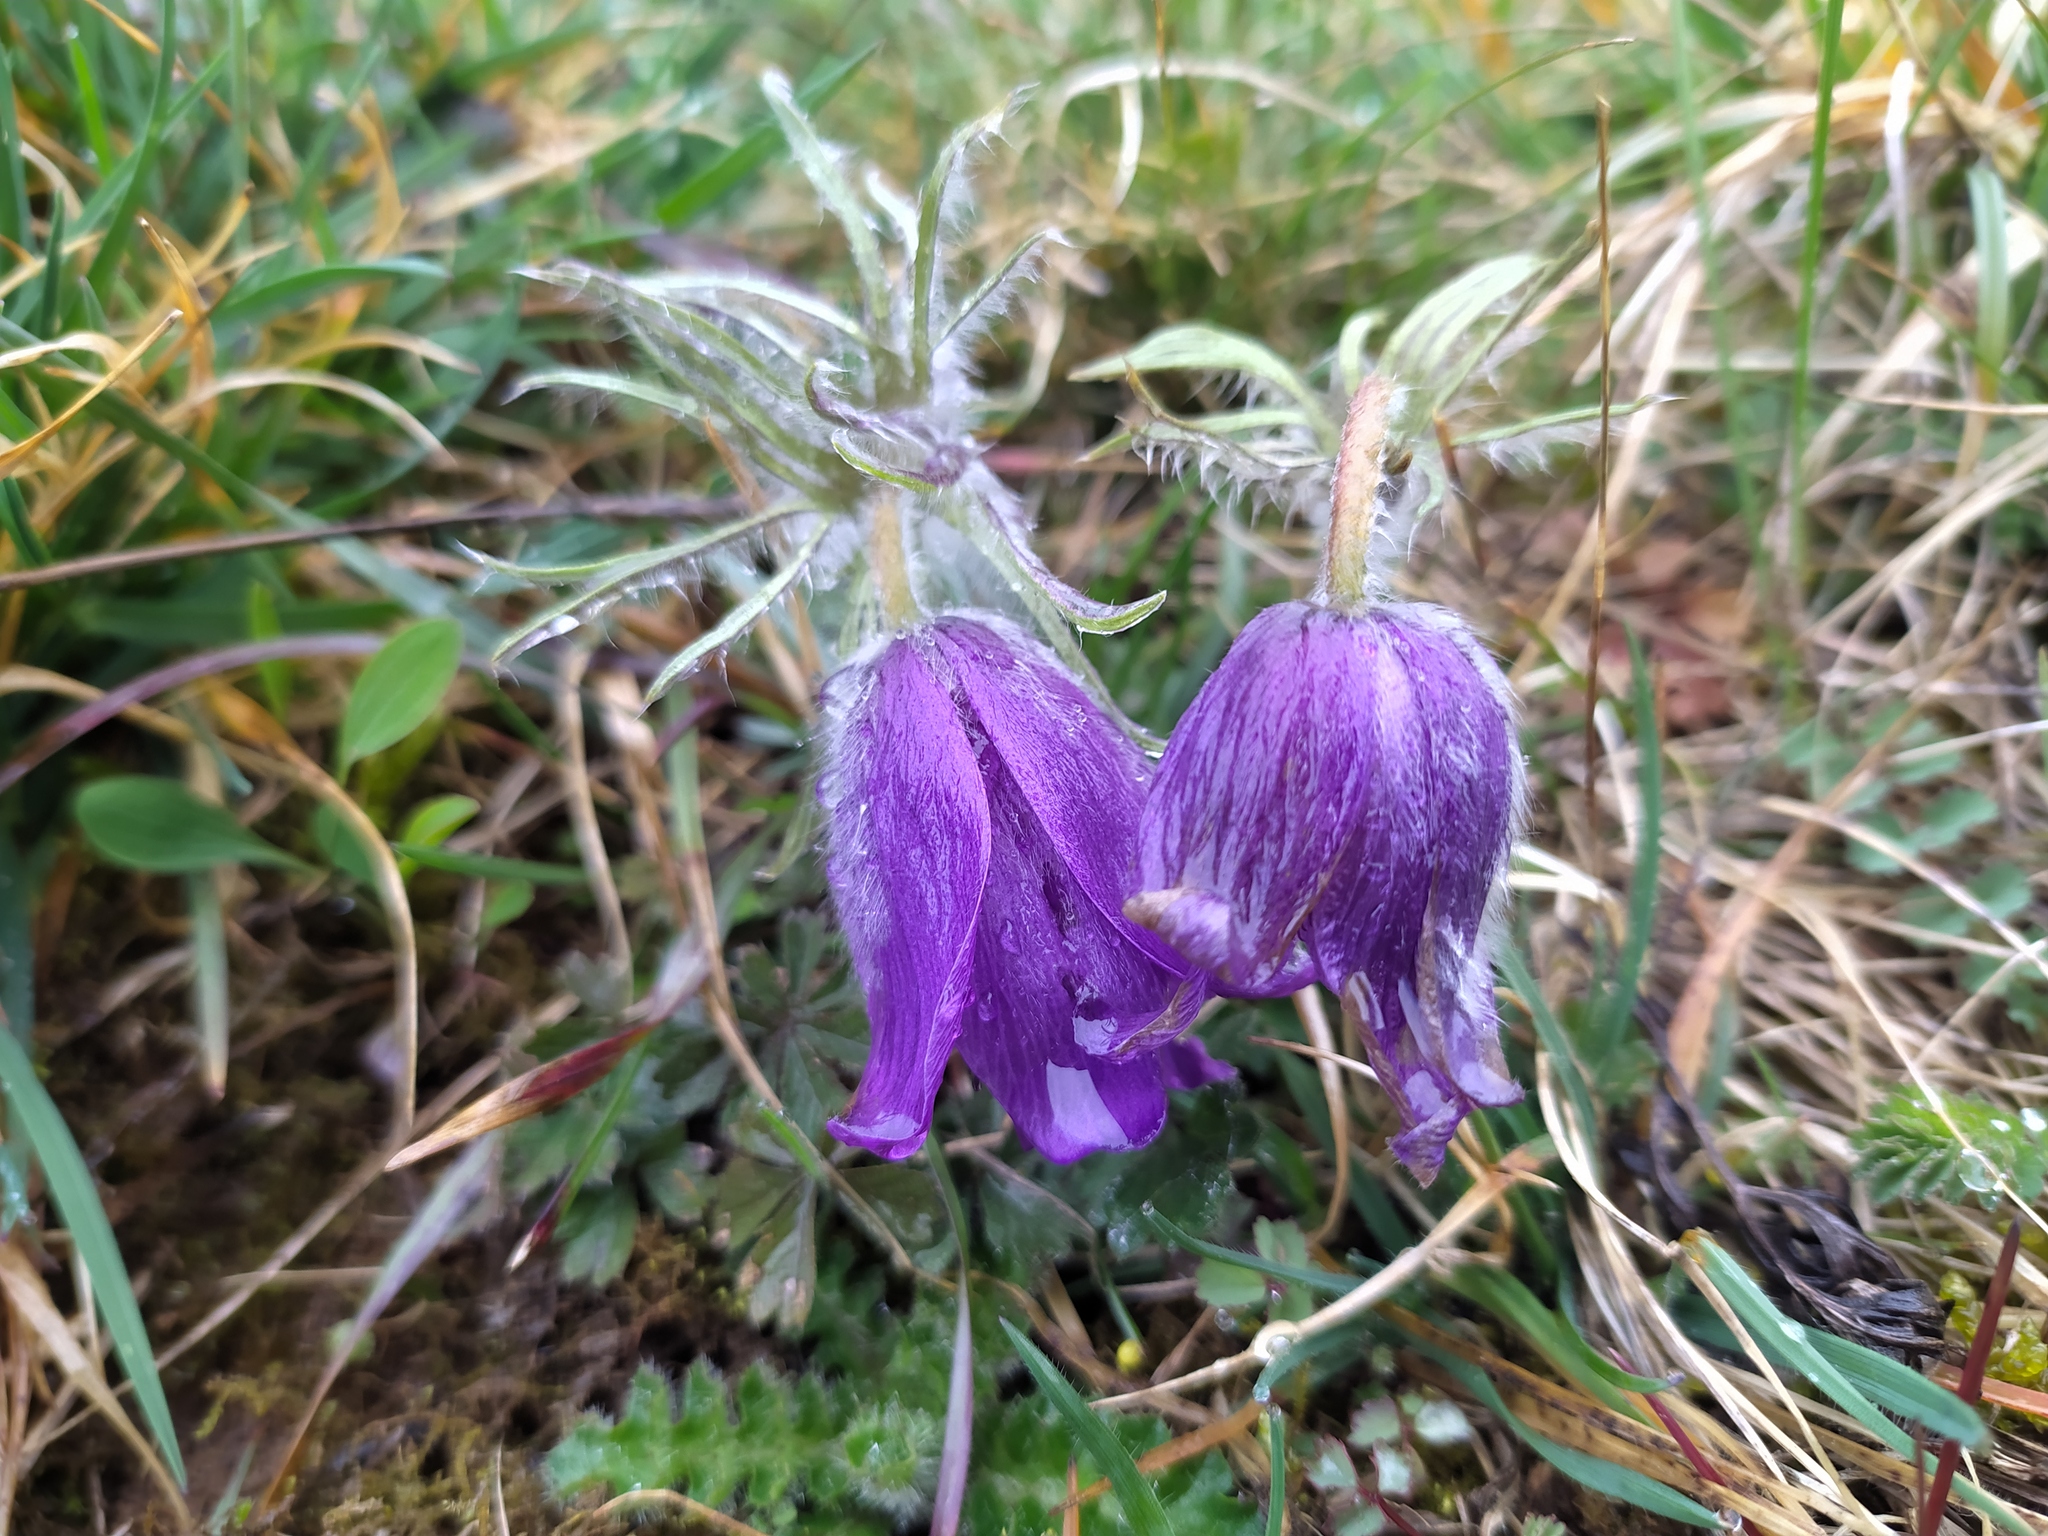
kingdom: Plantae
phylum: Tracheophyta
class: Magnoliopsida
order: Ranunculales
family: Ranunculaceae
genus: Pulsatilla
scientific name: Pulsatilla vulgaris
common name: Pasqueflower
